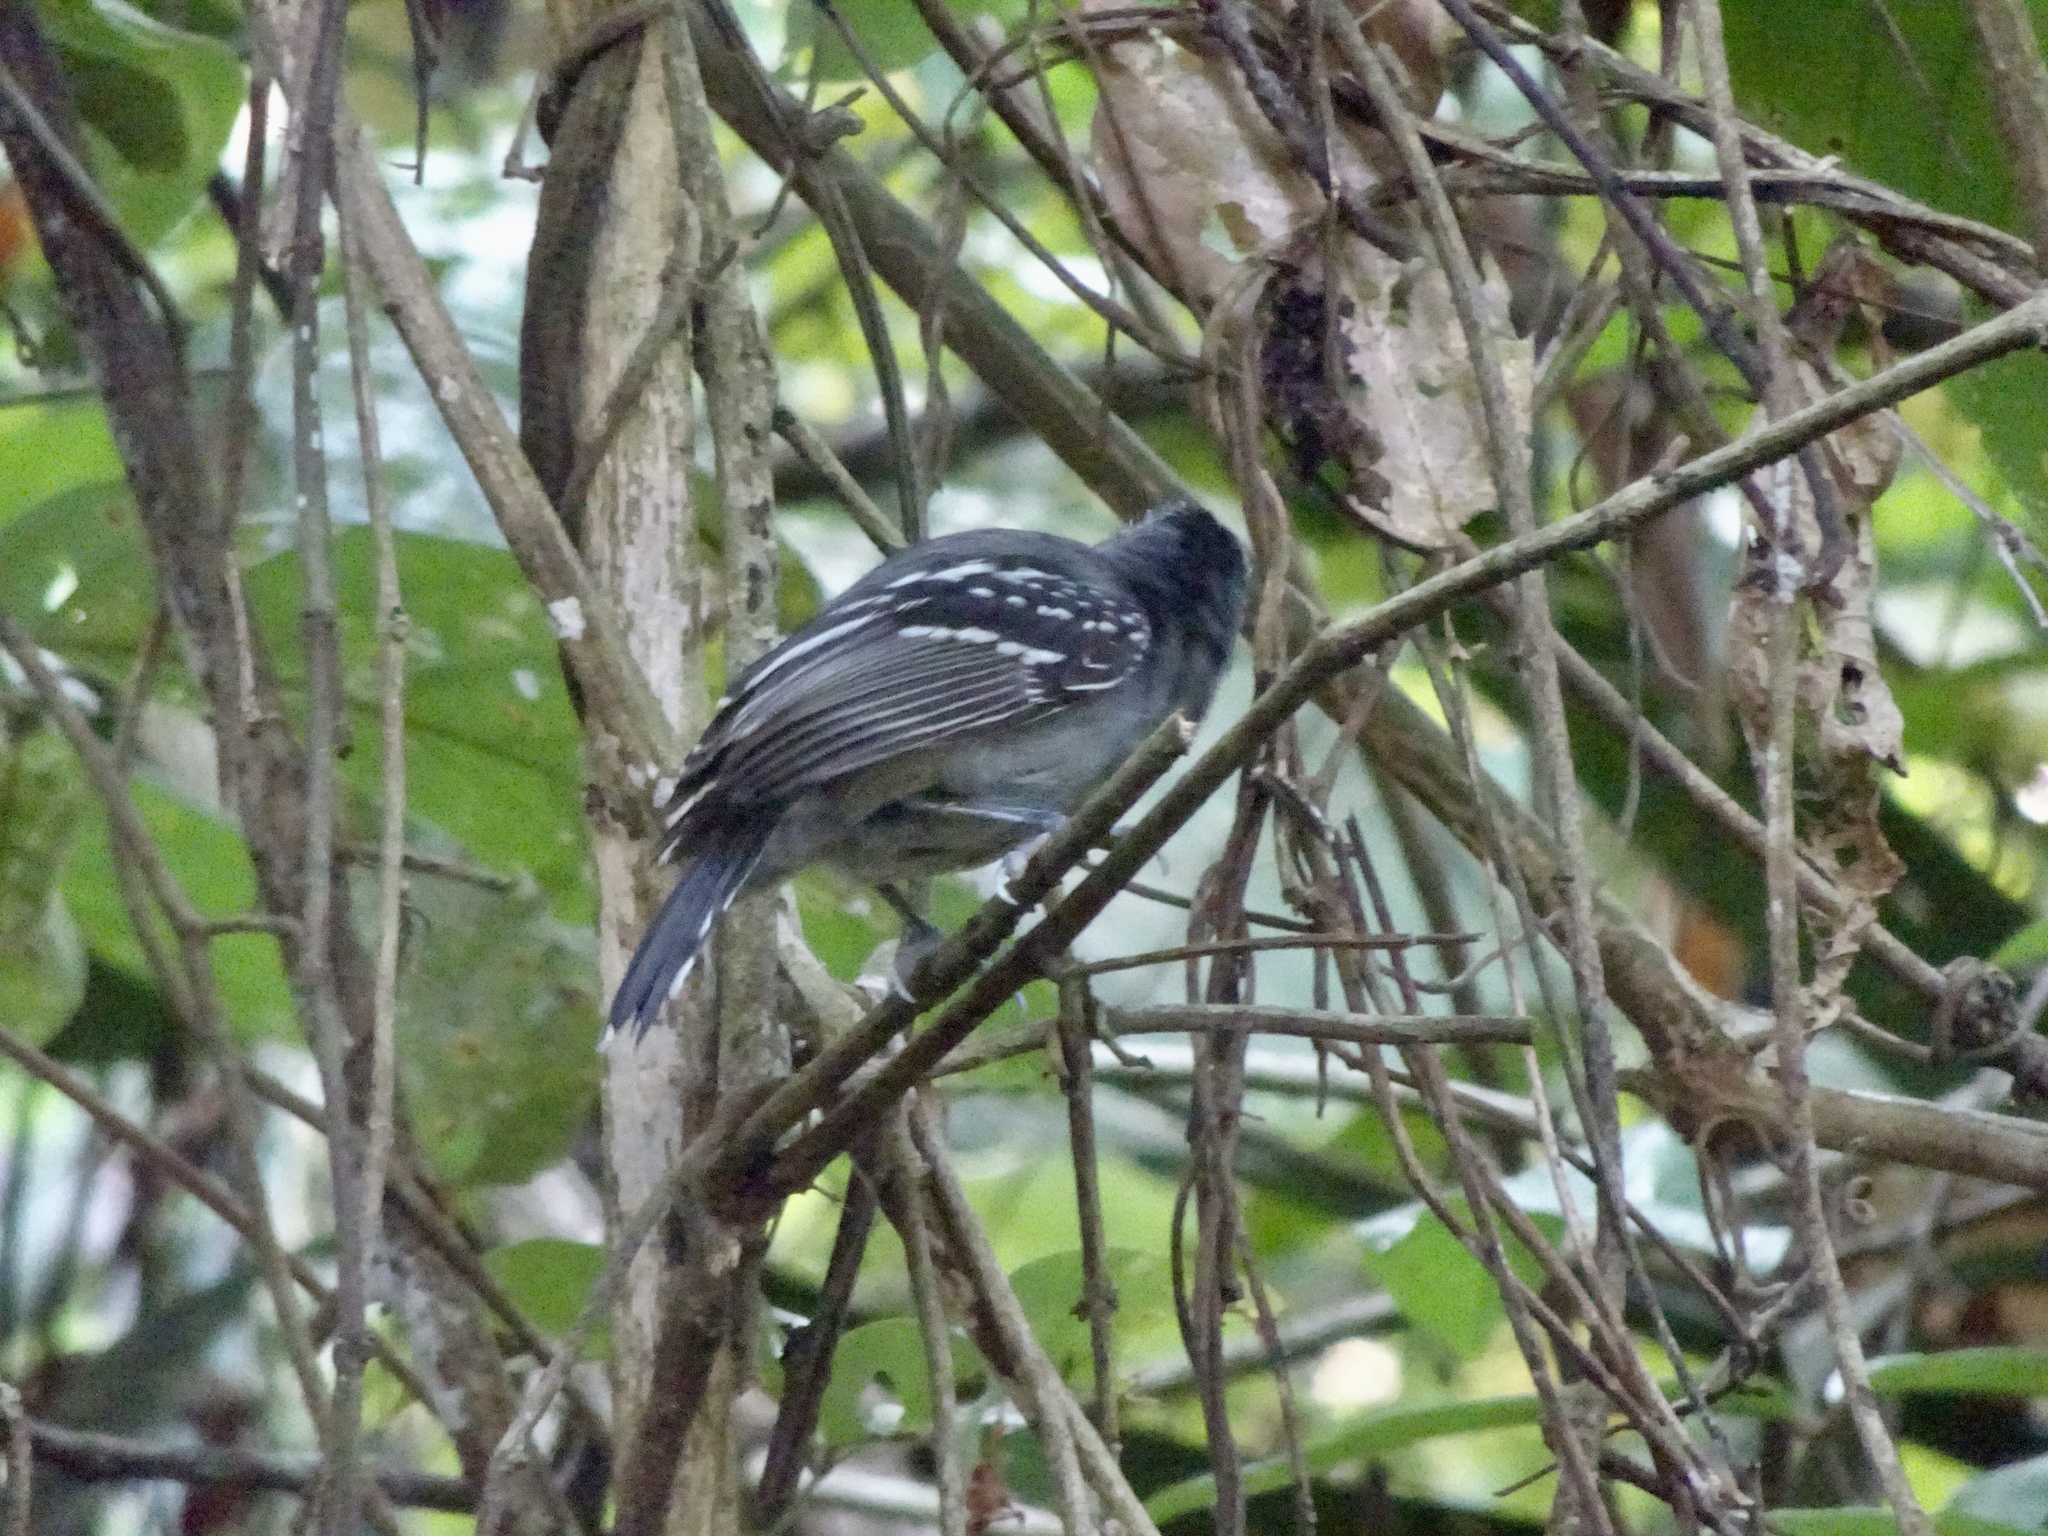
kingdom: Animalia
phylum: Chordata
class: Aves
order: Passeriformes
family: Thamnophilidae
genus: Thamnophilus
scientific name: Thamnophilus atrinucha
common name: Black-crowned antshrike
